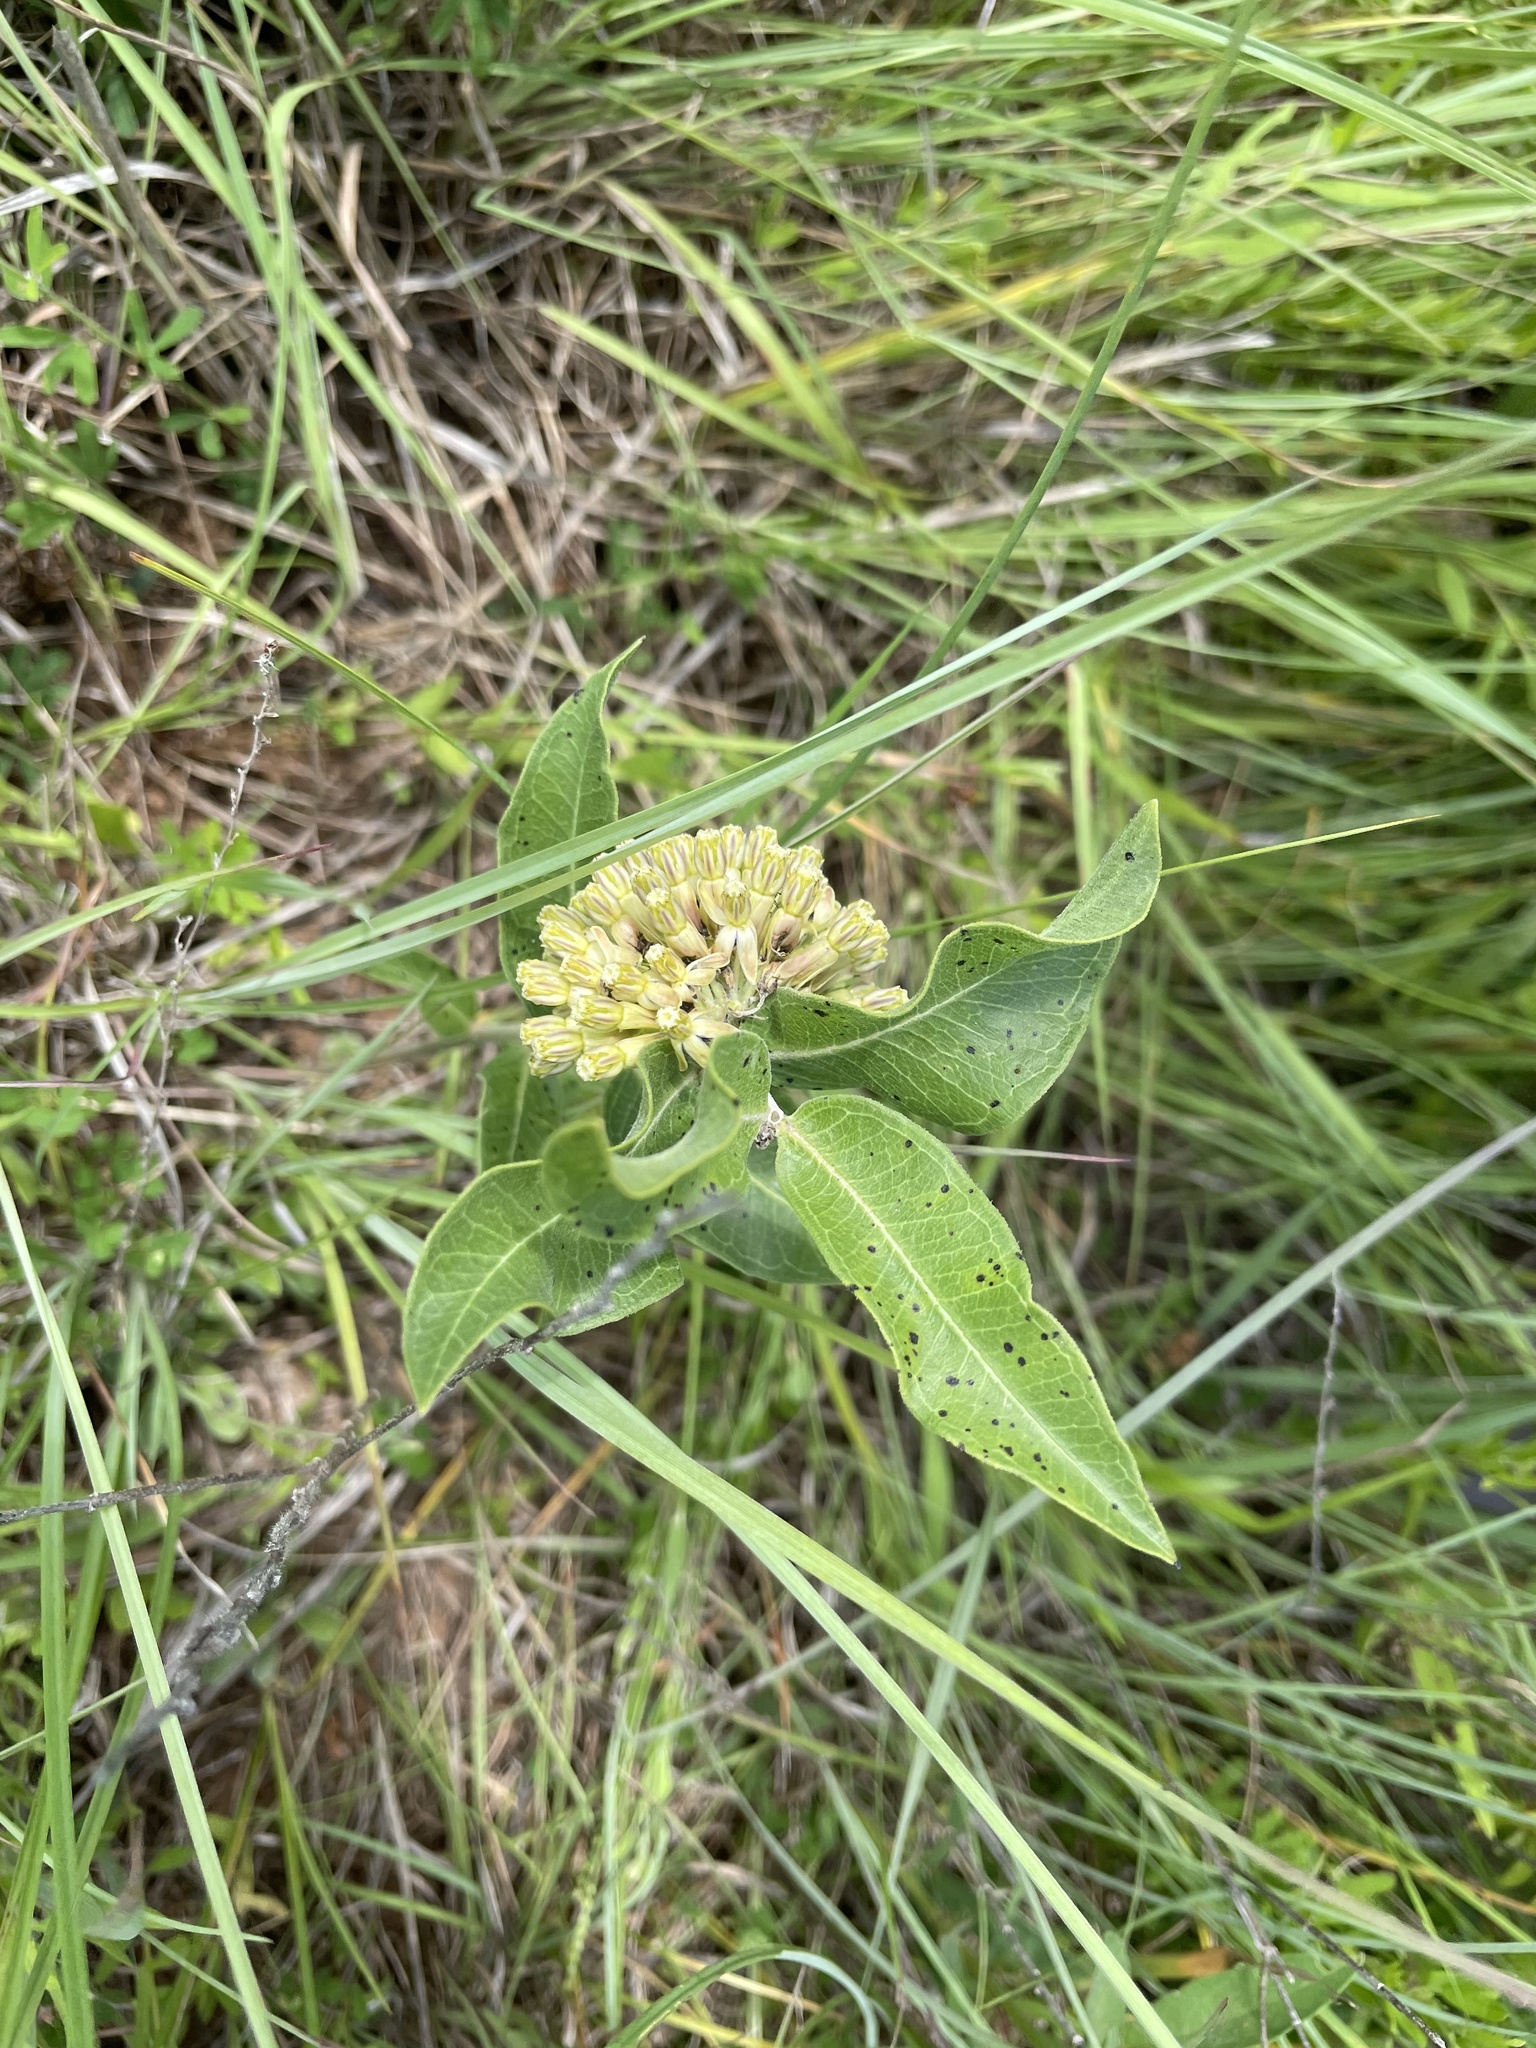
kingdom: Plantae
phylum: Tracheophyta
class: Magnoliopsida
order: Gentianales
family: Apocynaceae
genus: Asclepias
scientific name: Asclepias viridiflora
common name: Green comet milkweed
